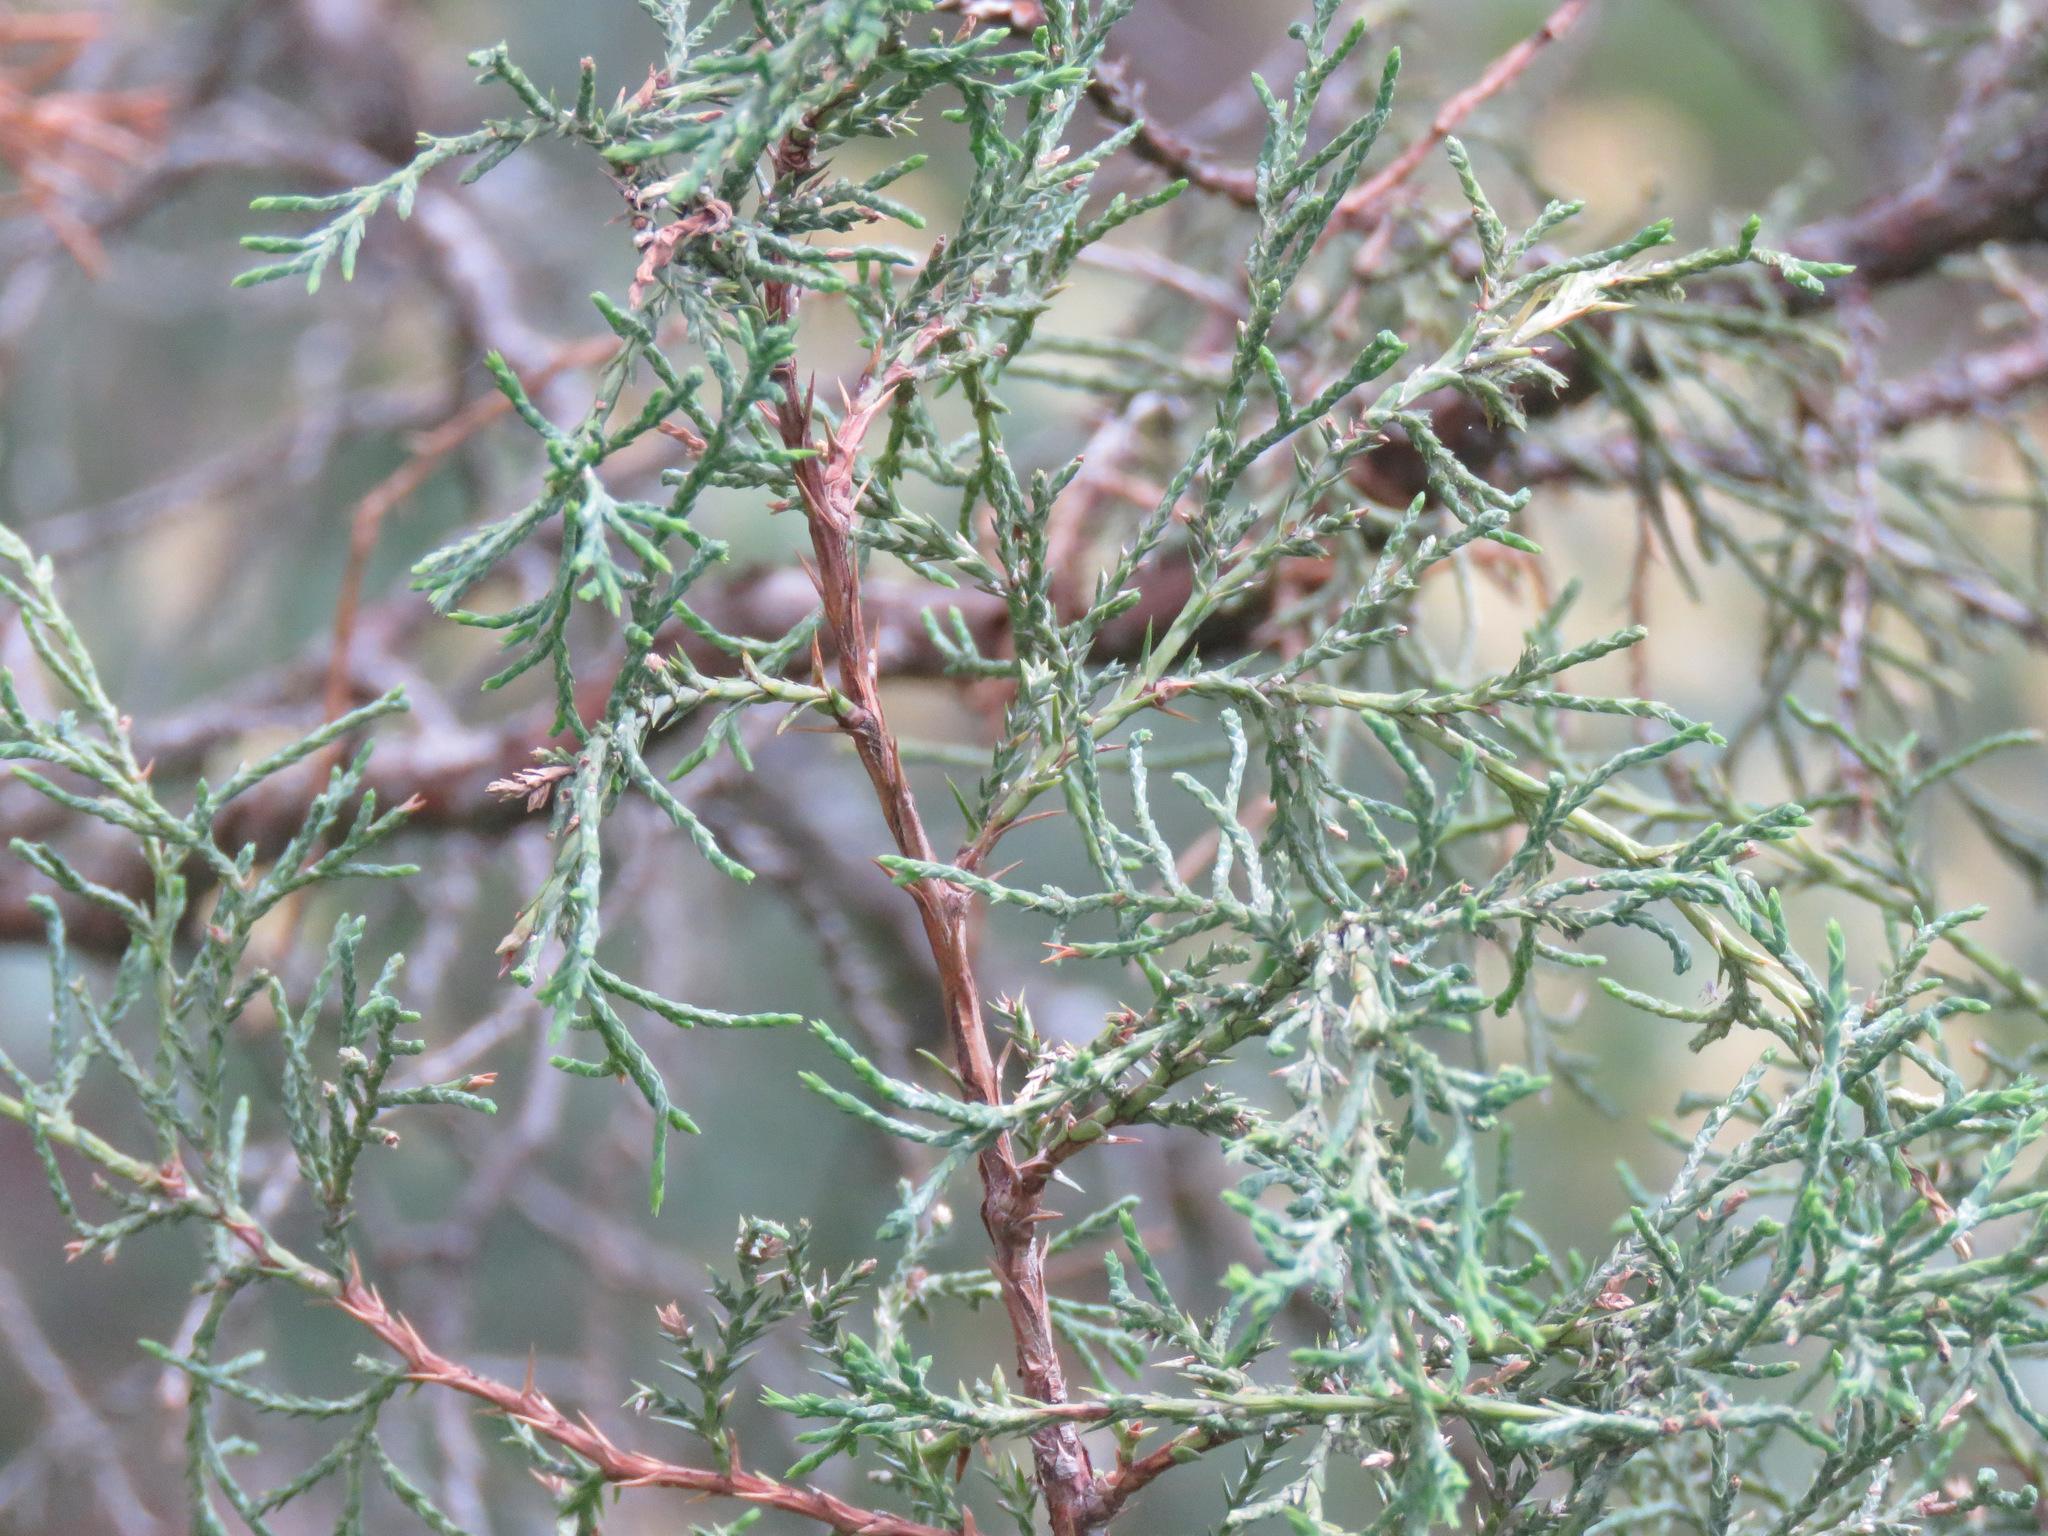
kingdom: Plantae
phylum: Tracheophyta
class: Pinopsida
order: Pinales
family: Cupressaceae
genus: Juniperus
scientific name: Juniperus scopulorum
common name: Rocky mountain juniper
